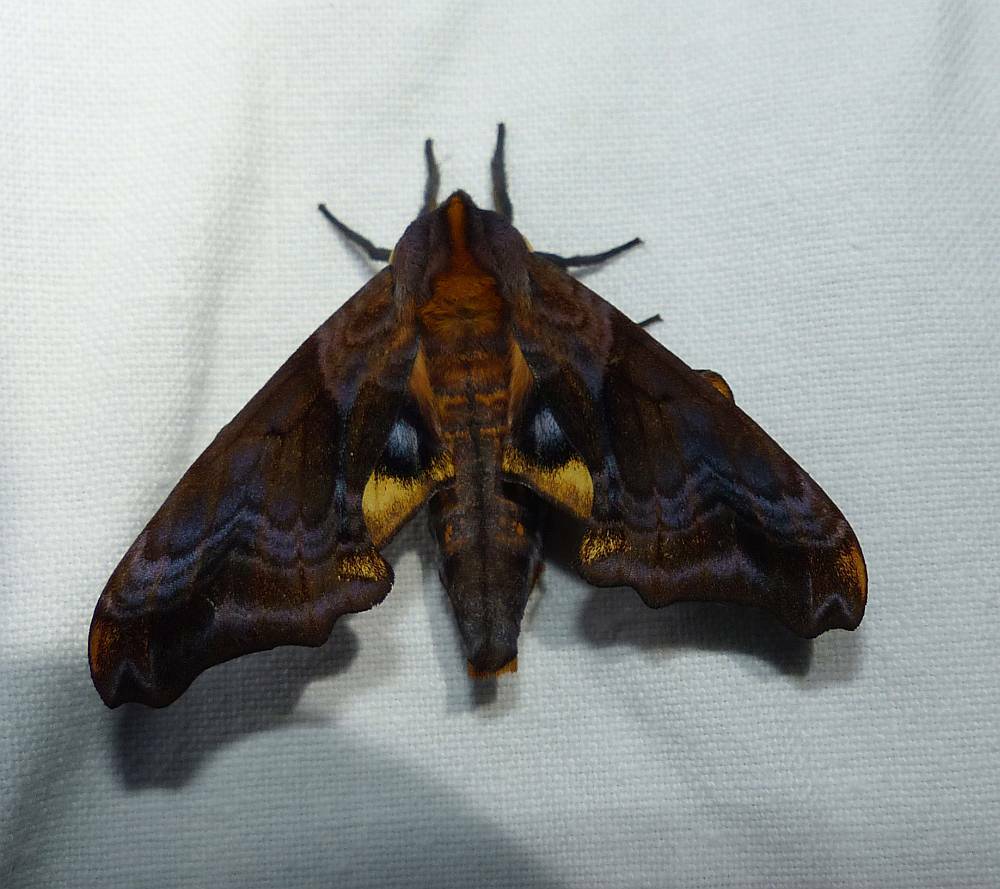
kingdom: Animalia
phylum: Arthropoda
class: Insecta
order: Lepidoptera
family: Sphingidae
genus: Paonias
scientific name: Paonias myops
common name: Small-eyed sphinx
